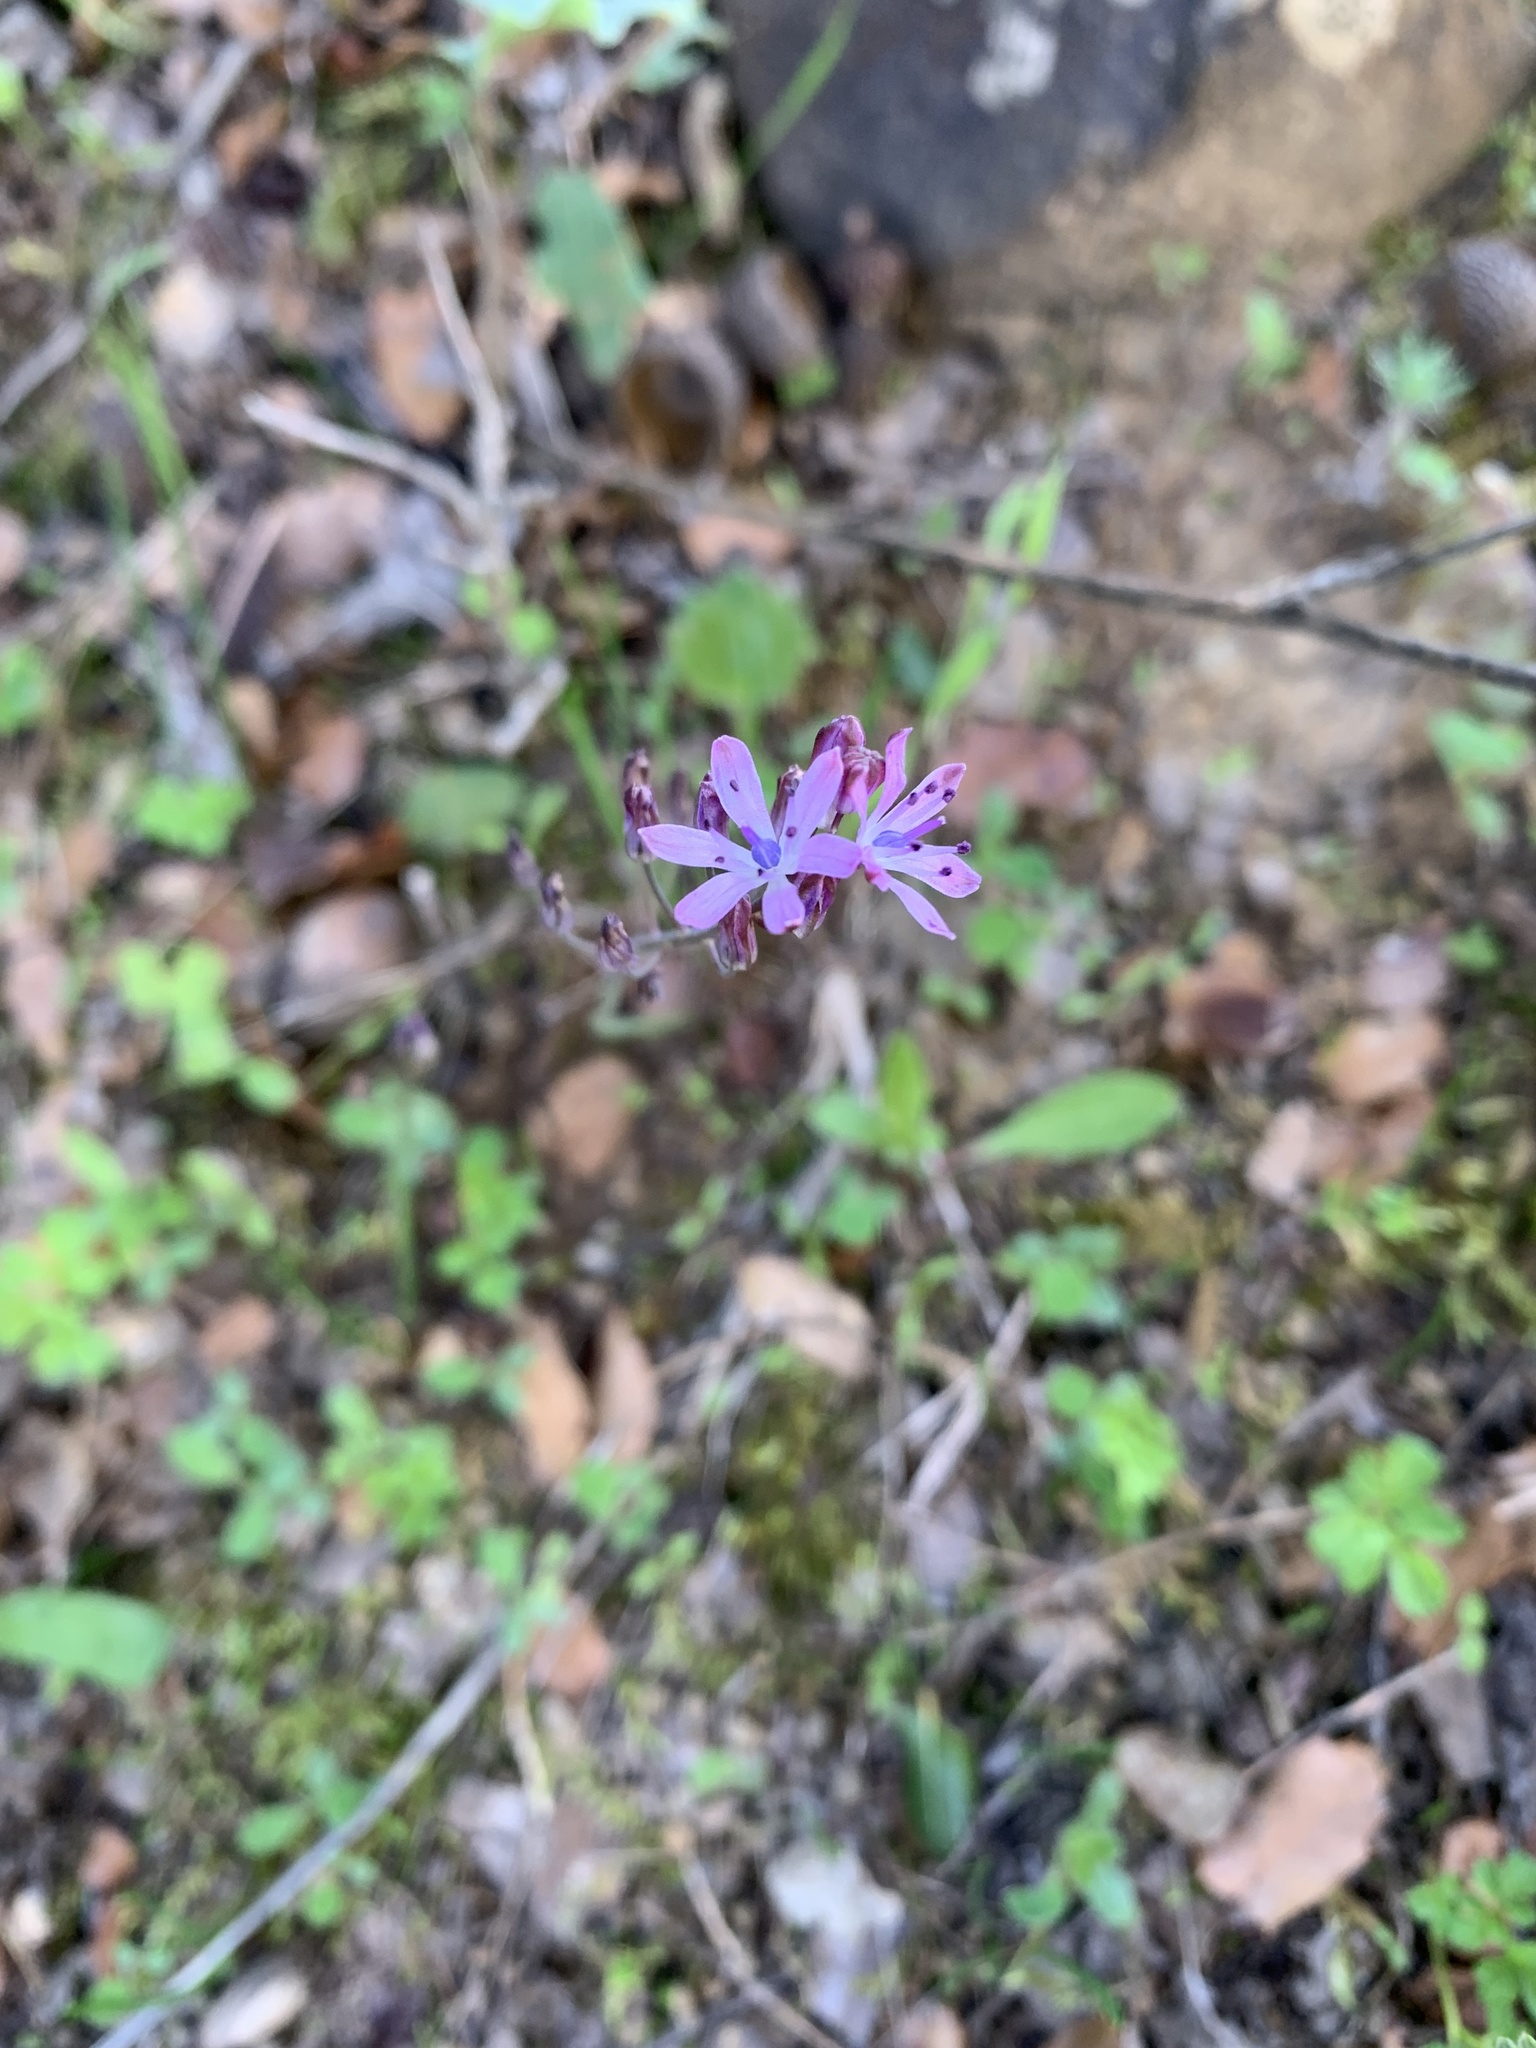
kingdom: Plantae
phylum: Tracheophyta
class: Liliopsida
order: Asparagales
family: Asparagaceae
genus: Prospero
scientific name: Prospero autumnale
